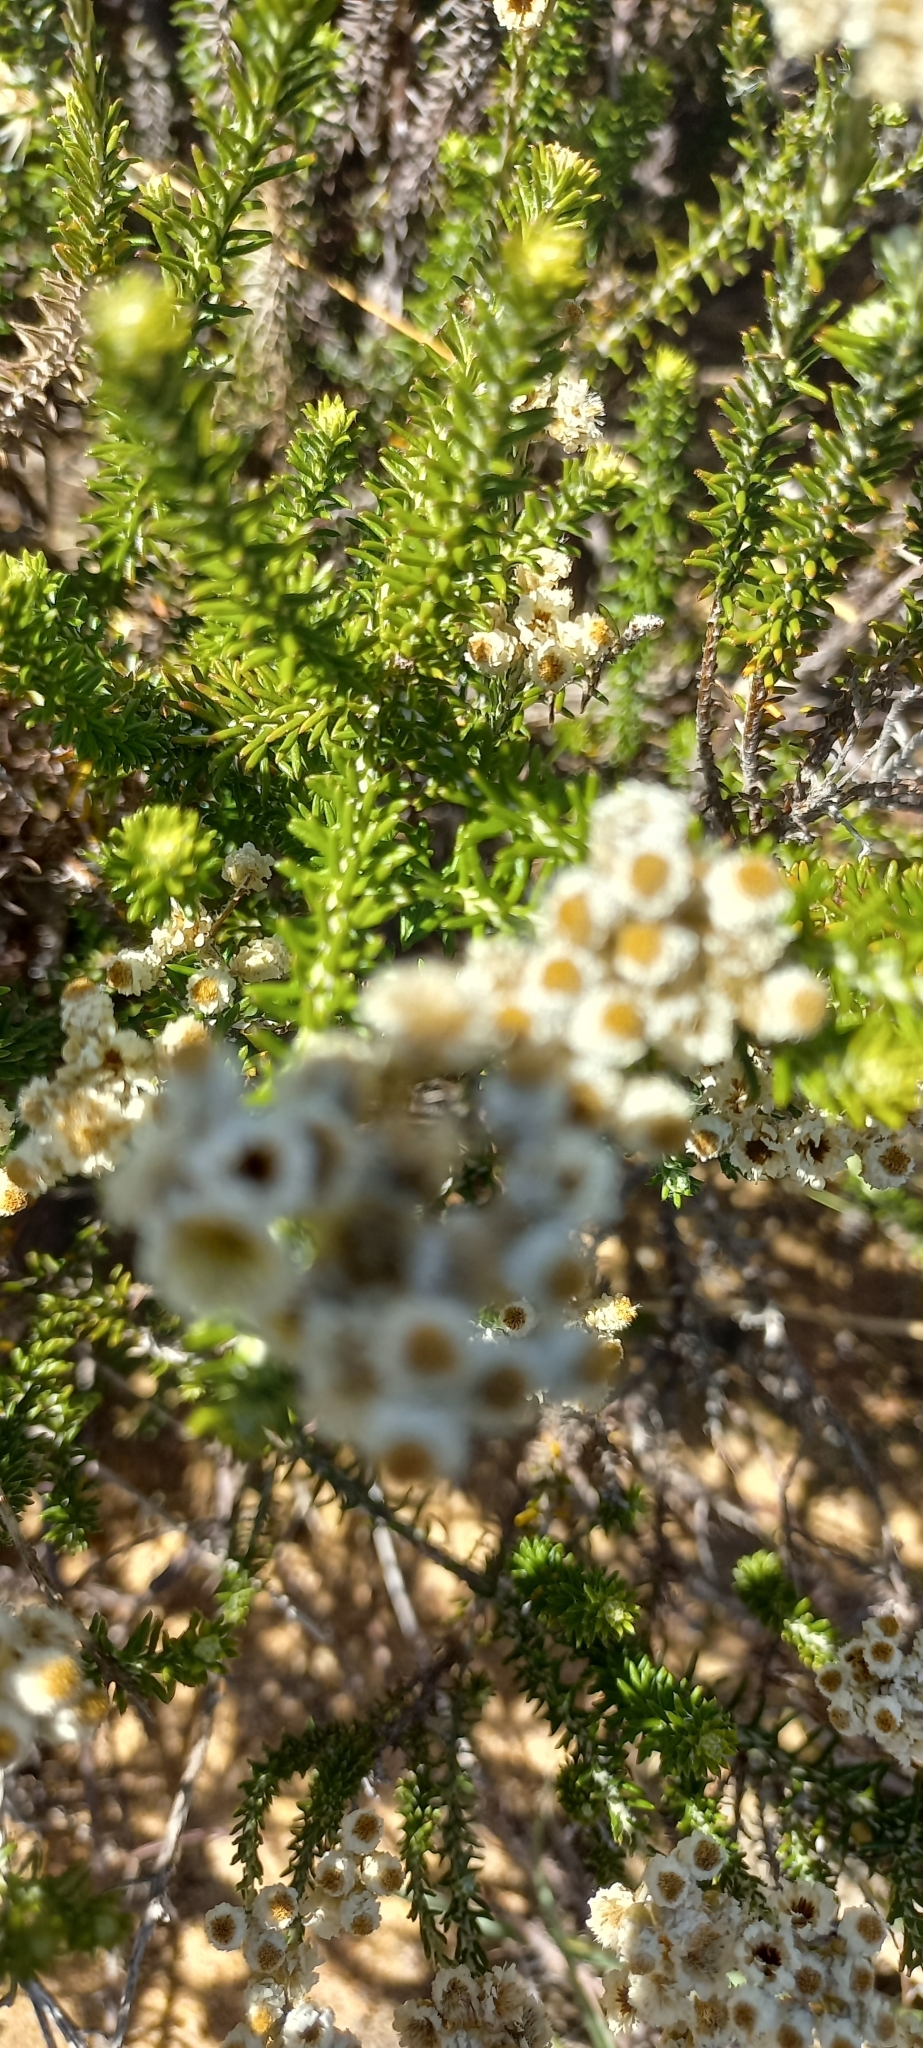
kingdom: Plantae
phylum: Tracheophyta
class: Magnoliopsida
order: Asterales
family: Asteraceae
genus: Helichrysum
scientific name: Helichrysum teretifolium
